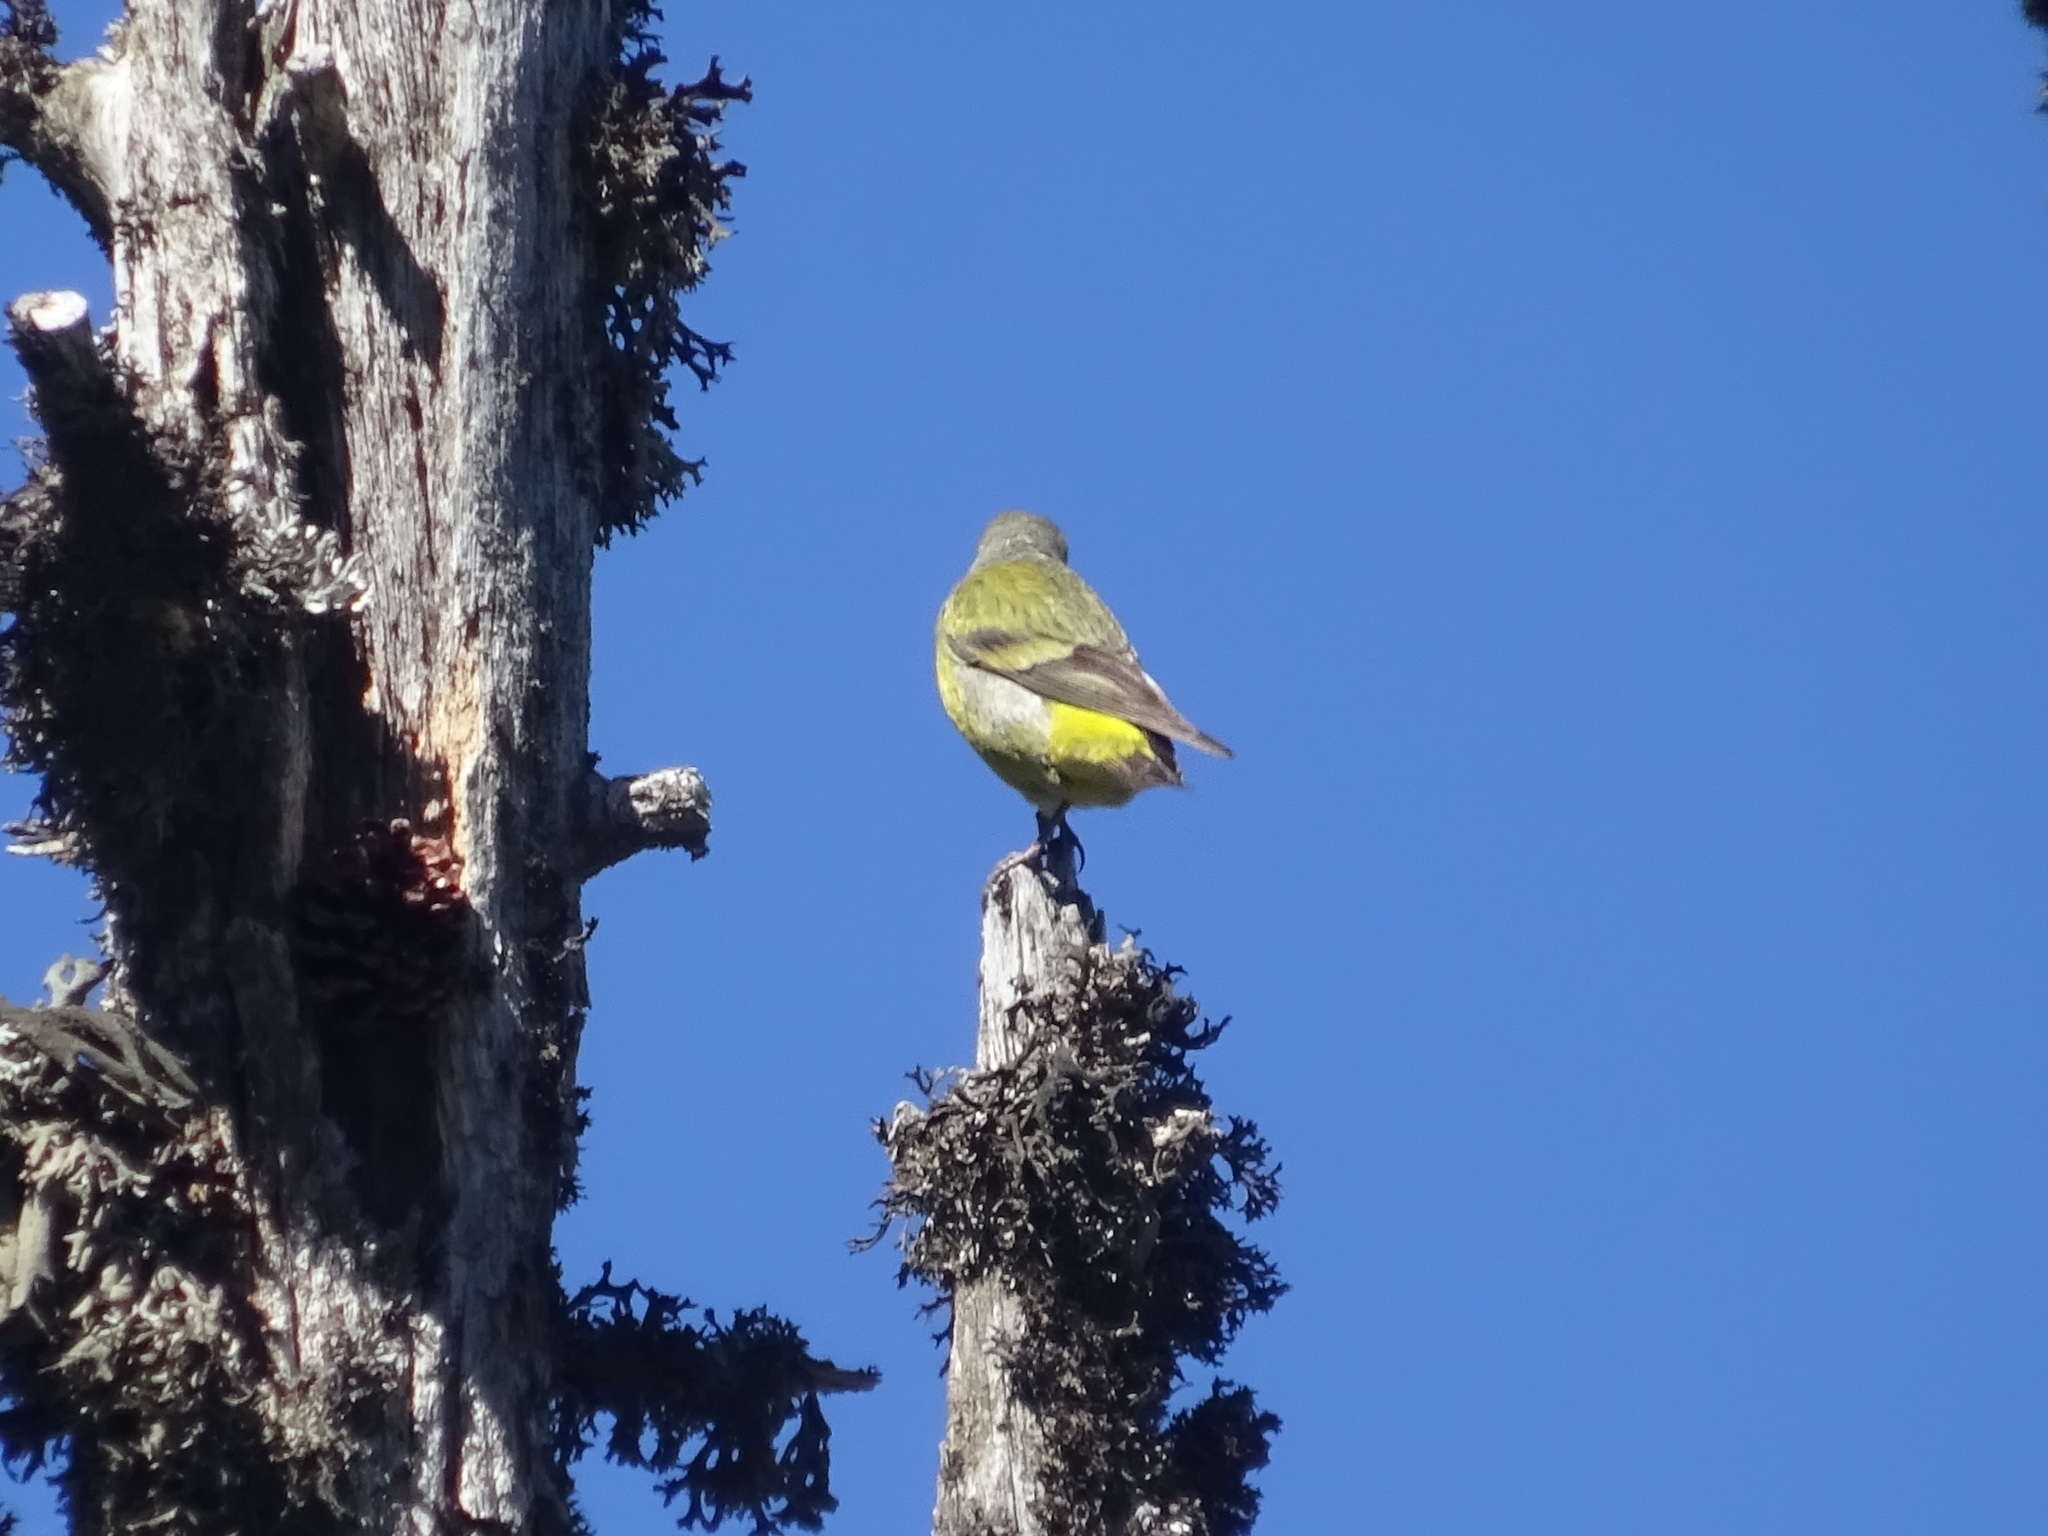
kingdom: Animalia
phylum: Chordata
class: Aves
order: Passeriformes
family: Fringillidae
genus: Carduelis
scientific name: Carduelis citrinella
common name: Citril finch
